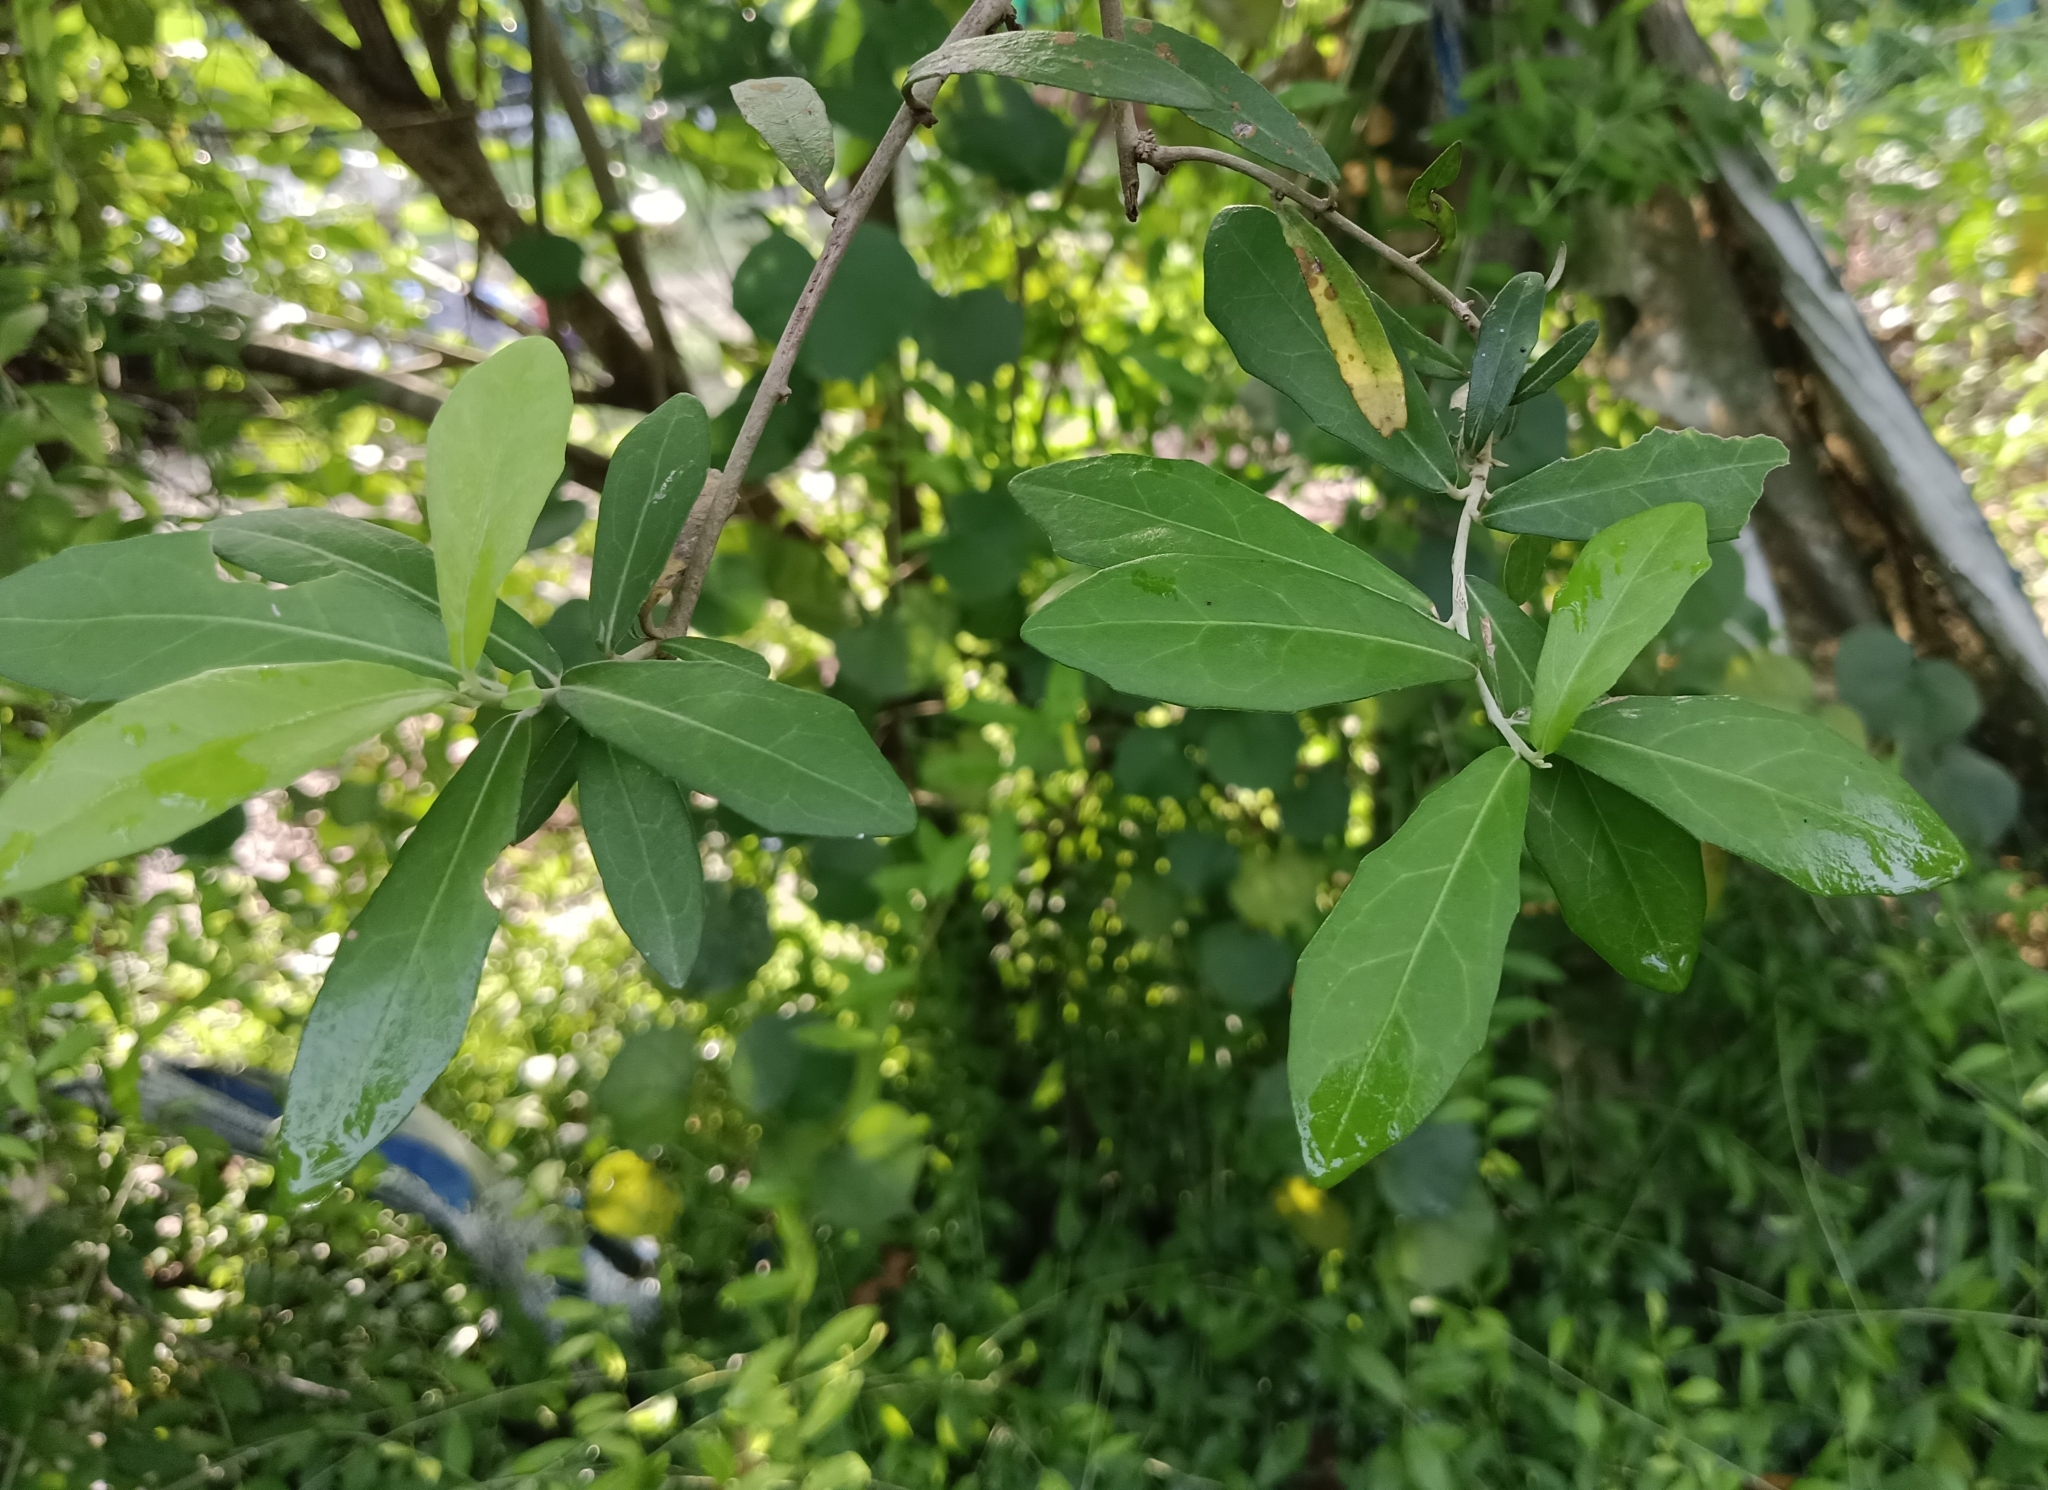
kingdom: Plantae
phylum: Tracheophyta
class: Magnoliopsida
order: Asterales
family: Asteraceae
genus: Tarlmounia
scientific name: Tarlmounia elliptica
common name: Kheua sa lot
